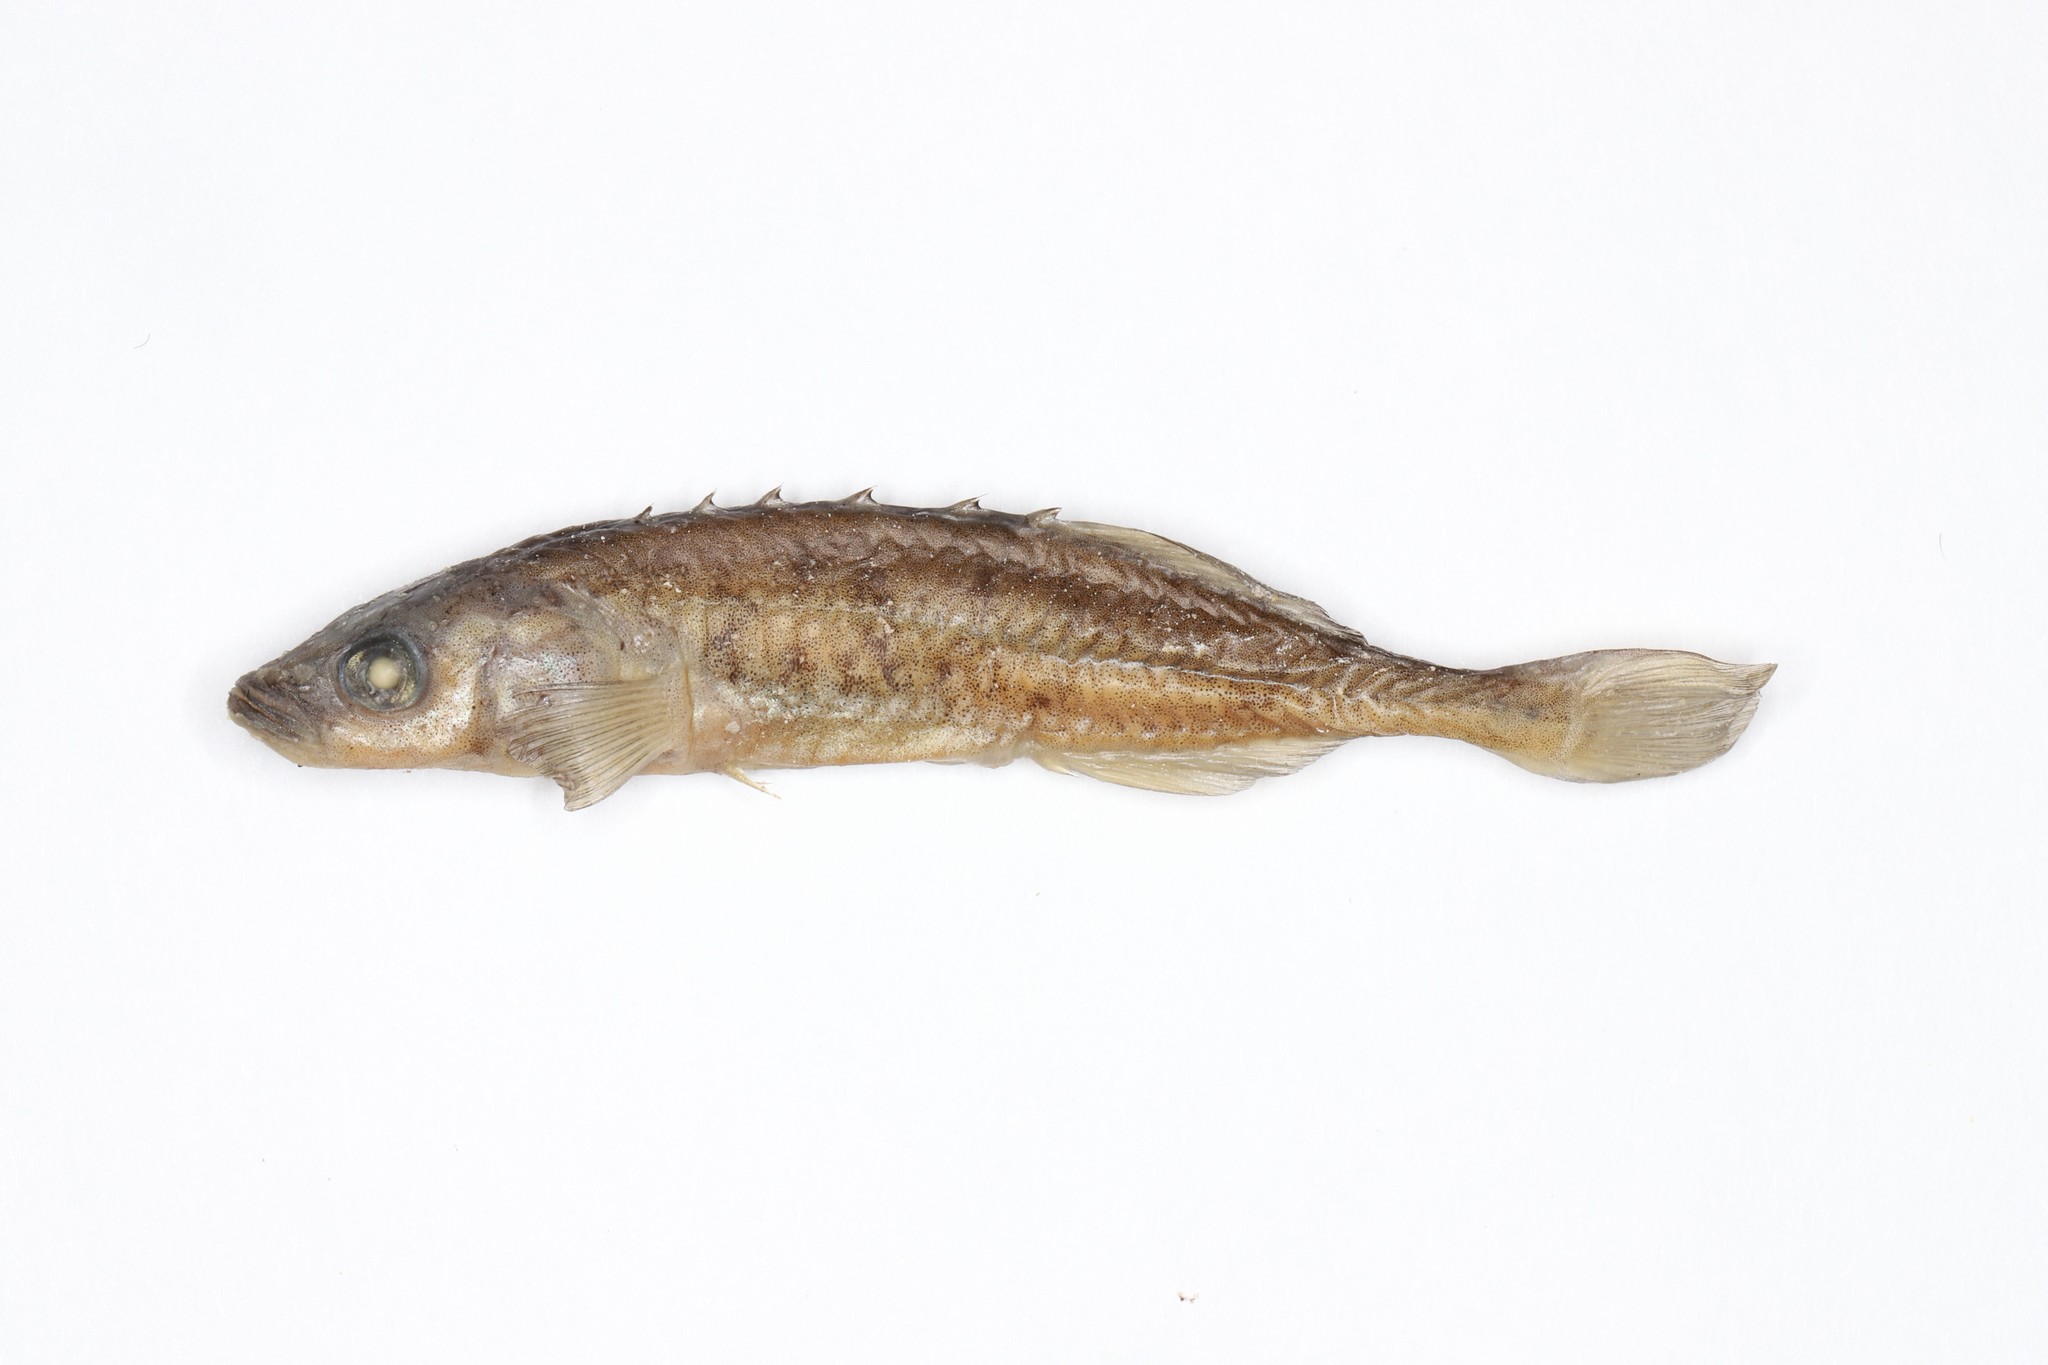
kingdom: Animalia
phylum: Chordata
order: Gasterosteiformes
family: Gasterosteidae
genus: Culaea
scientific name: Culaea inconstans
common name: Brook stickleback
